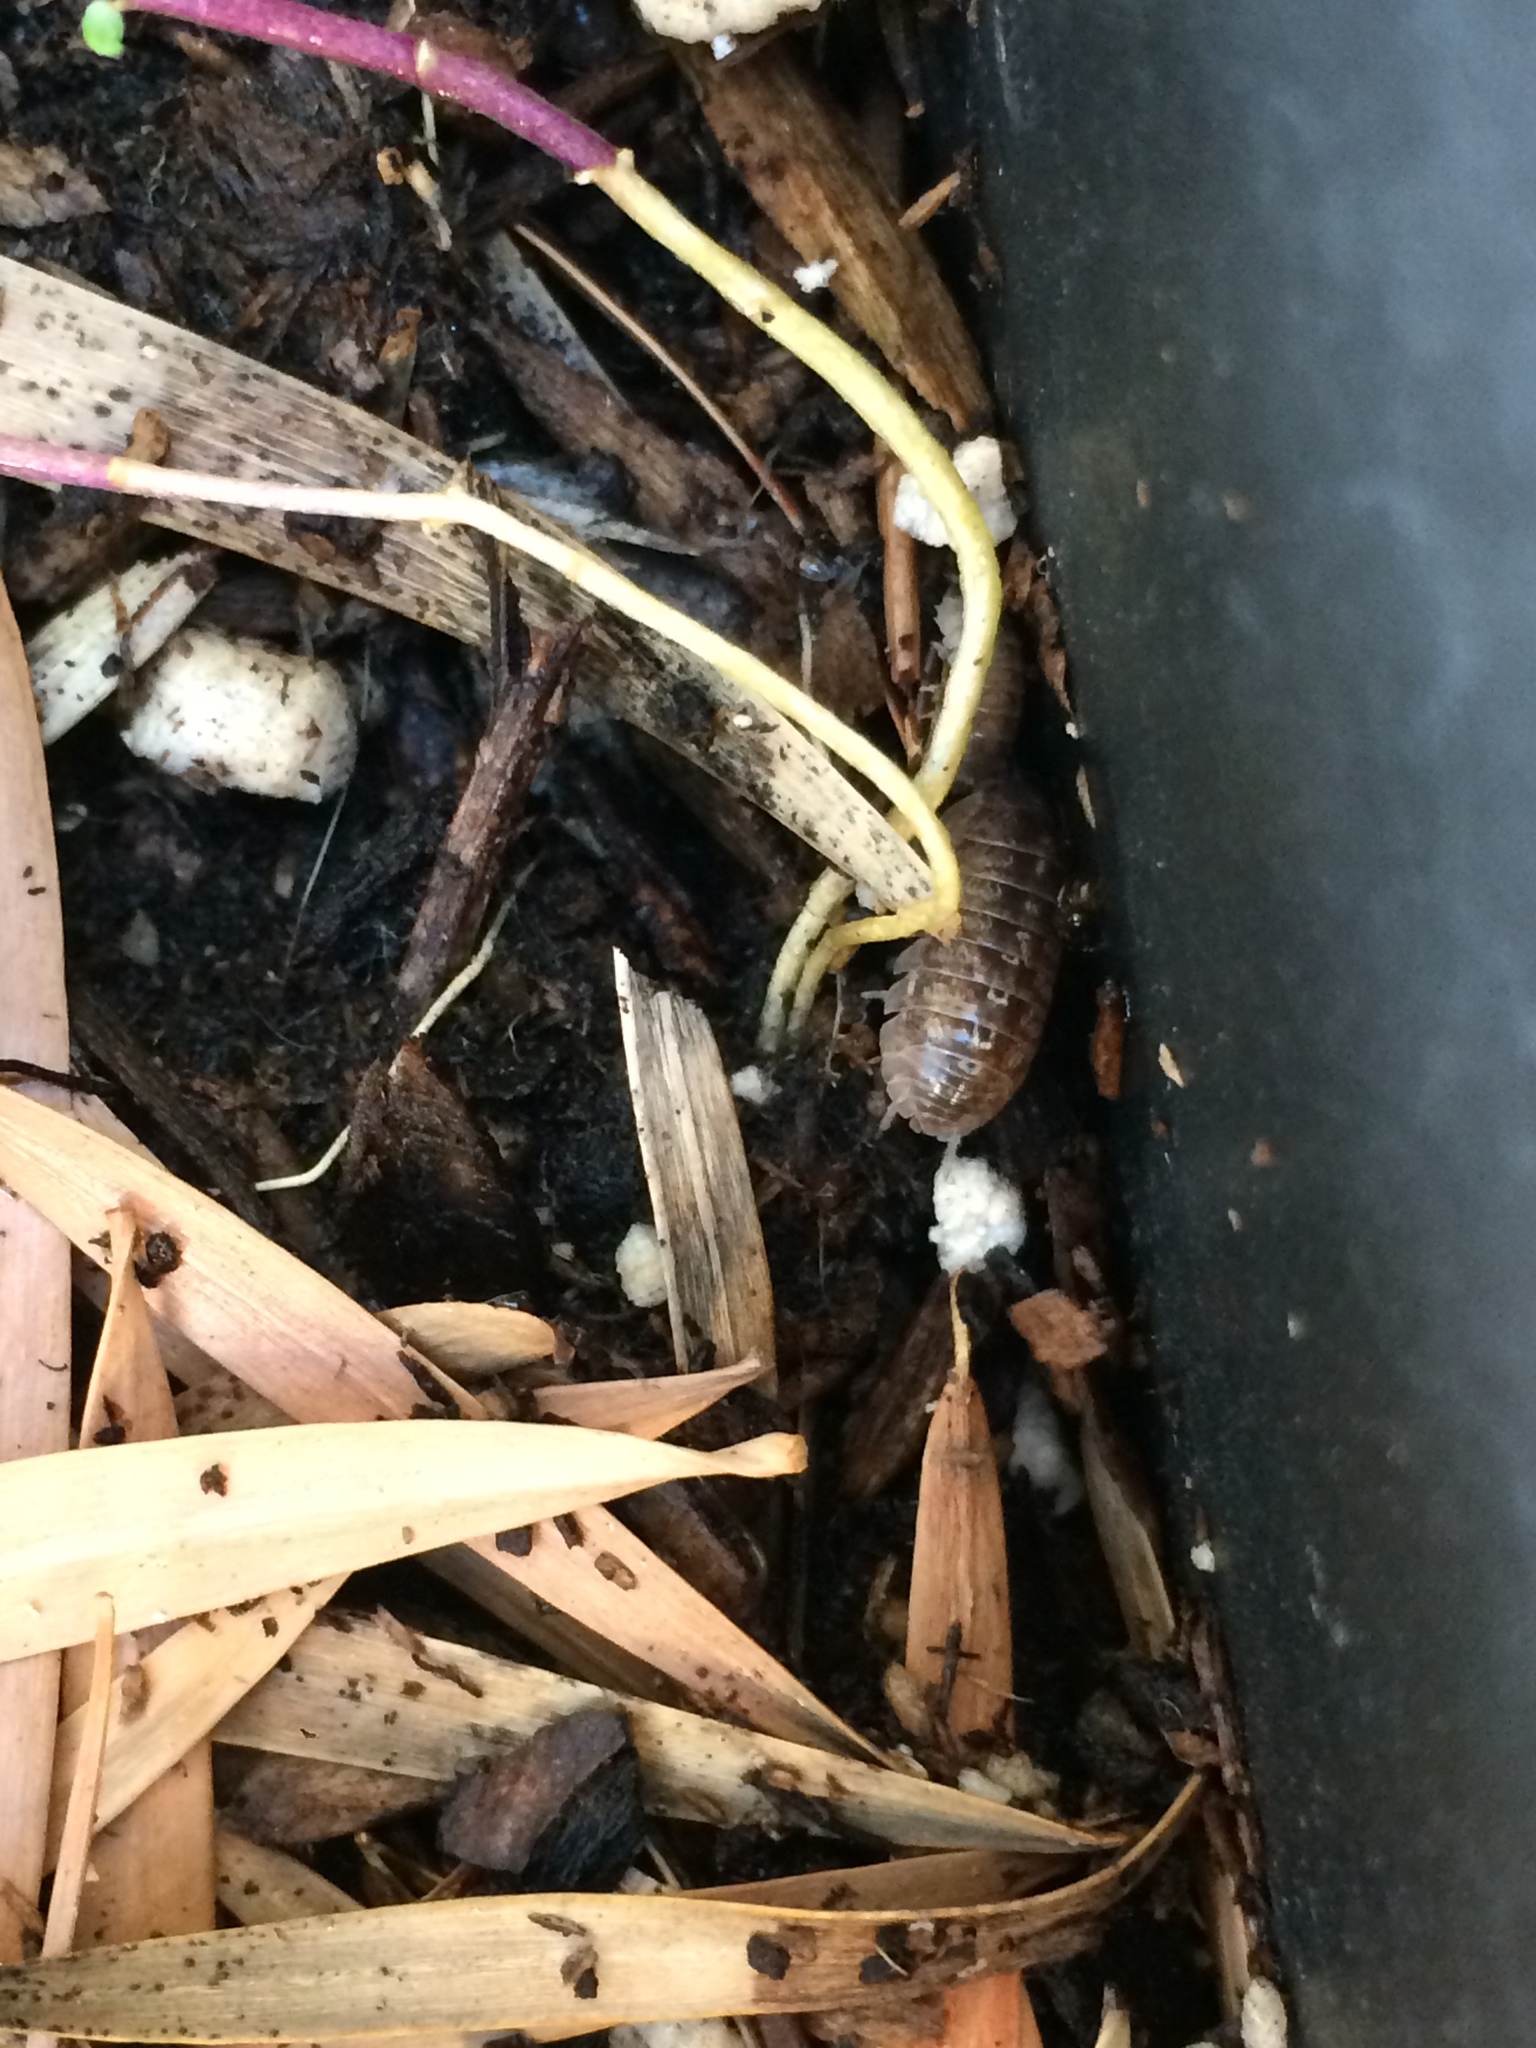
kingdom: Animalia
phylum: Arthropoda
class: Malacostraca
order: Isopoda
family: Armadillidiidae
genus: Armadillidium
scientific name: Armadillidium vulgare
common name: Common pill woodlouse
